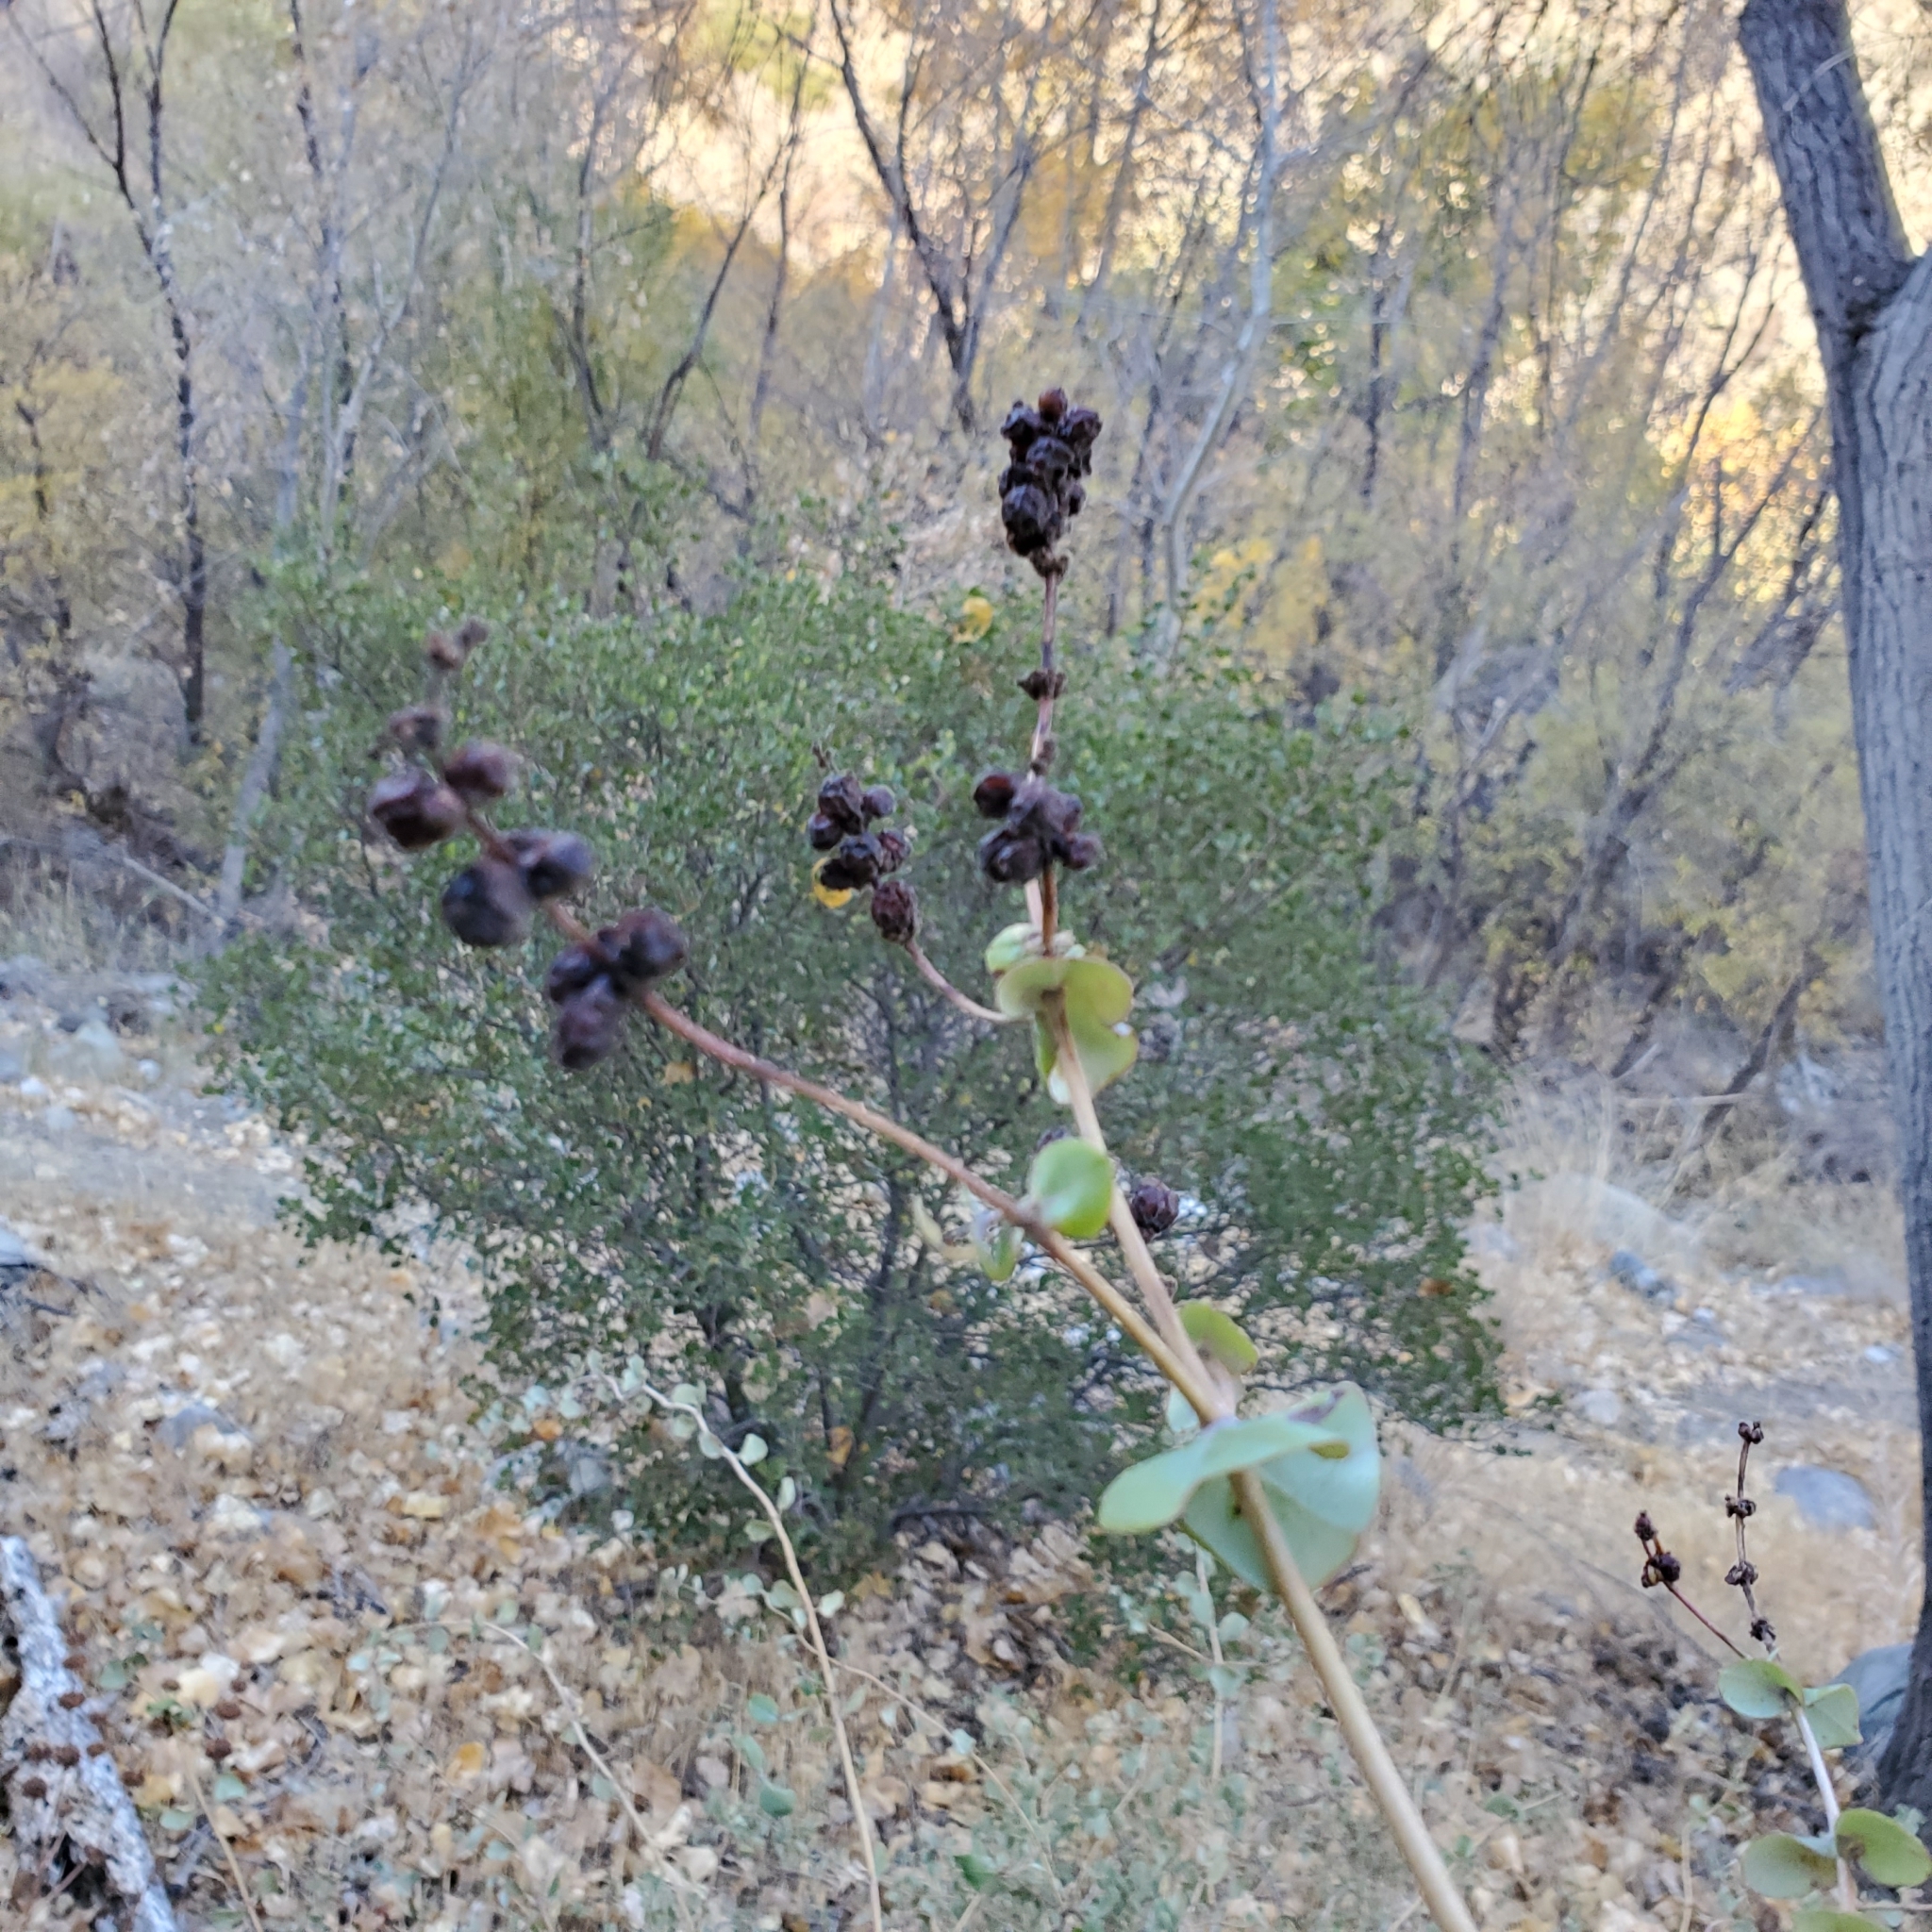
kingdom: Plantae
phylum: Tracheophyta
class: Magnoliopsida
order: Dipsacales
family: Caprifoliaceae
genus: Lonicera
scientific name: Lonicera interrupta
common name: Chaparral honeysuckle
